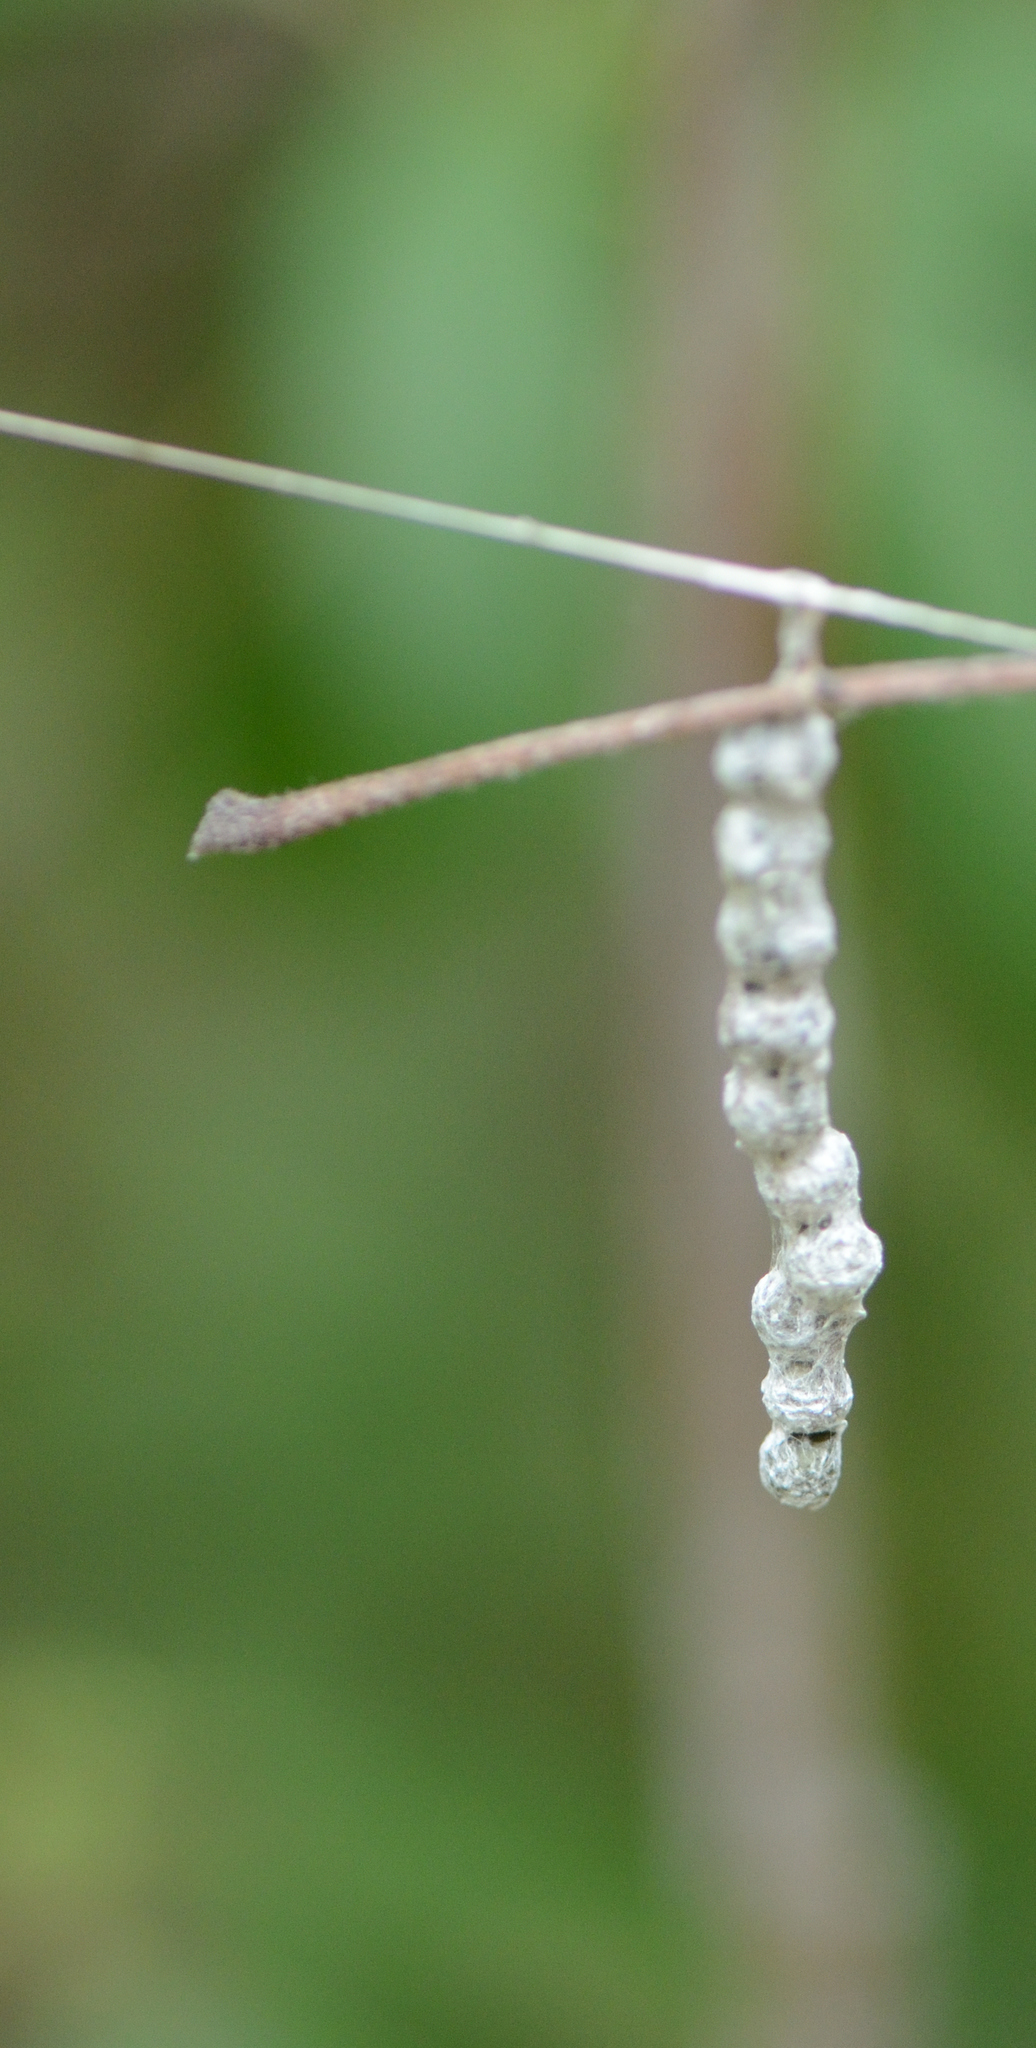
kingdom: Animalia
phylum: Arthropoda
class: Arachnida
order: Araneae
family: Araneidae
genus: Mecynogea
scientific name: Mecynogea lemniscata
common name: Orb weavers
